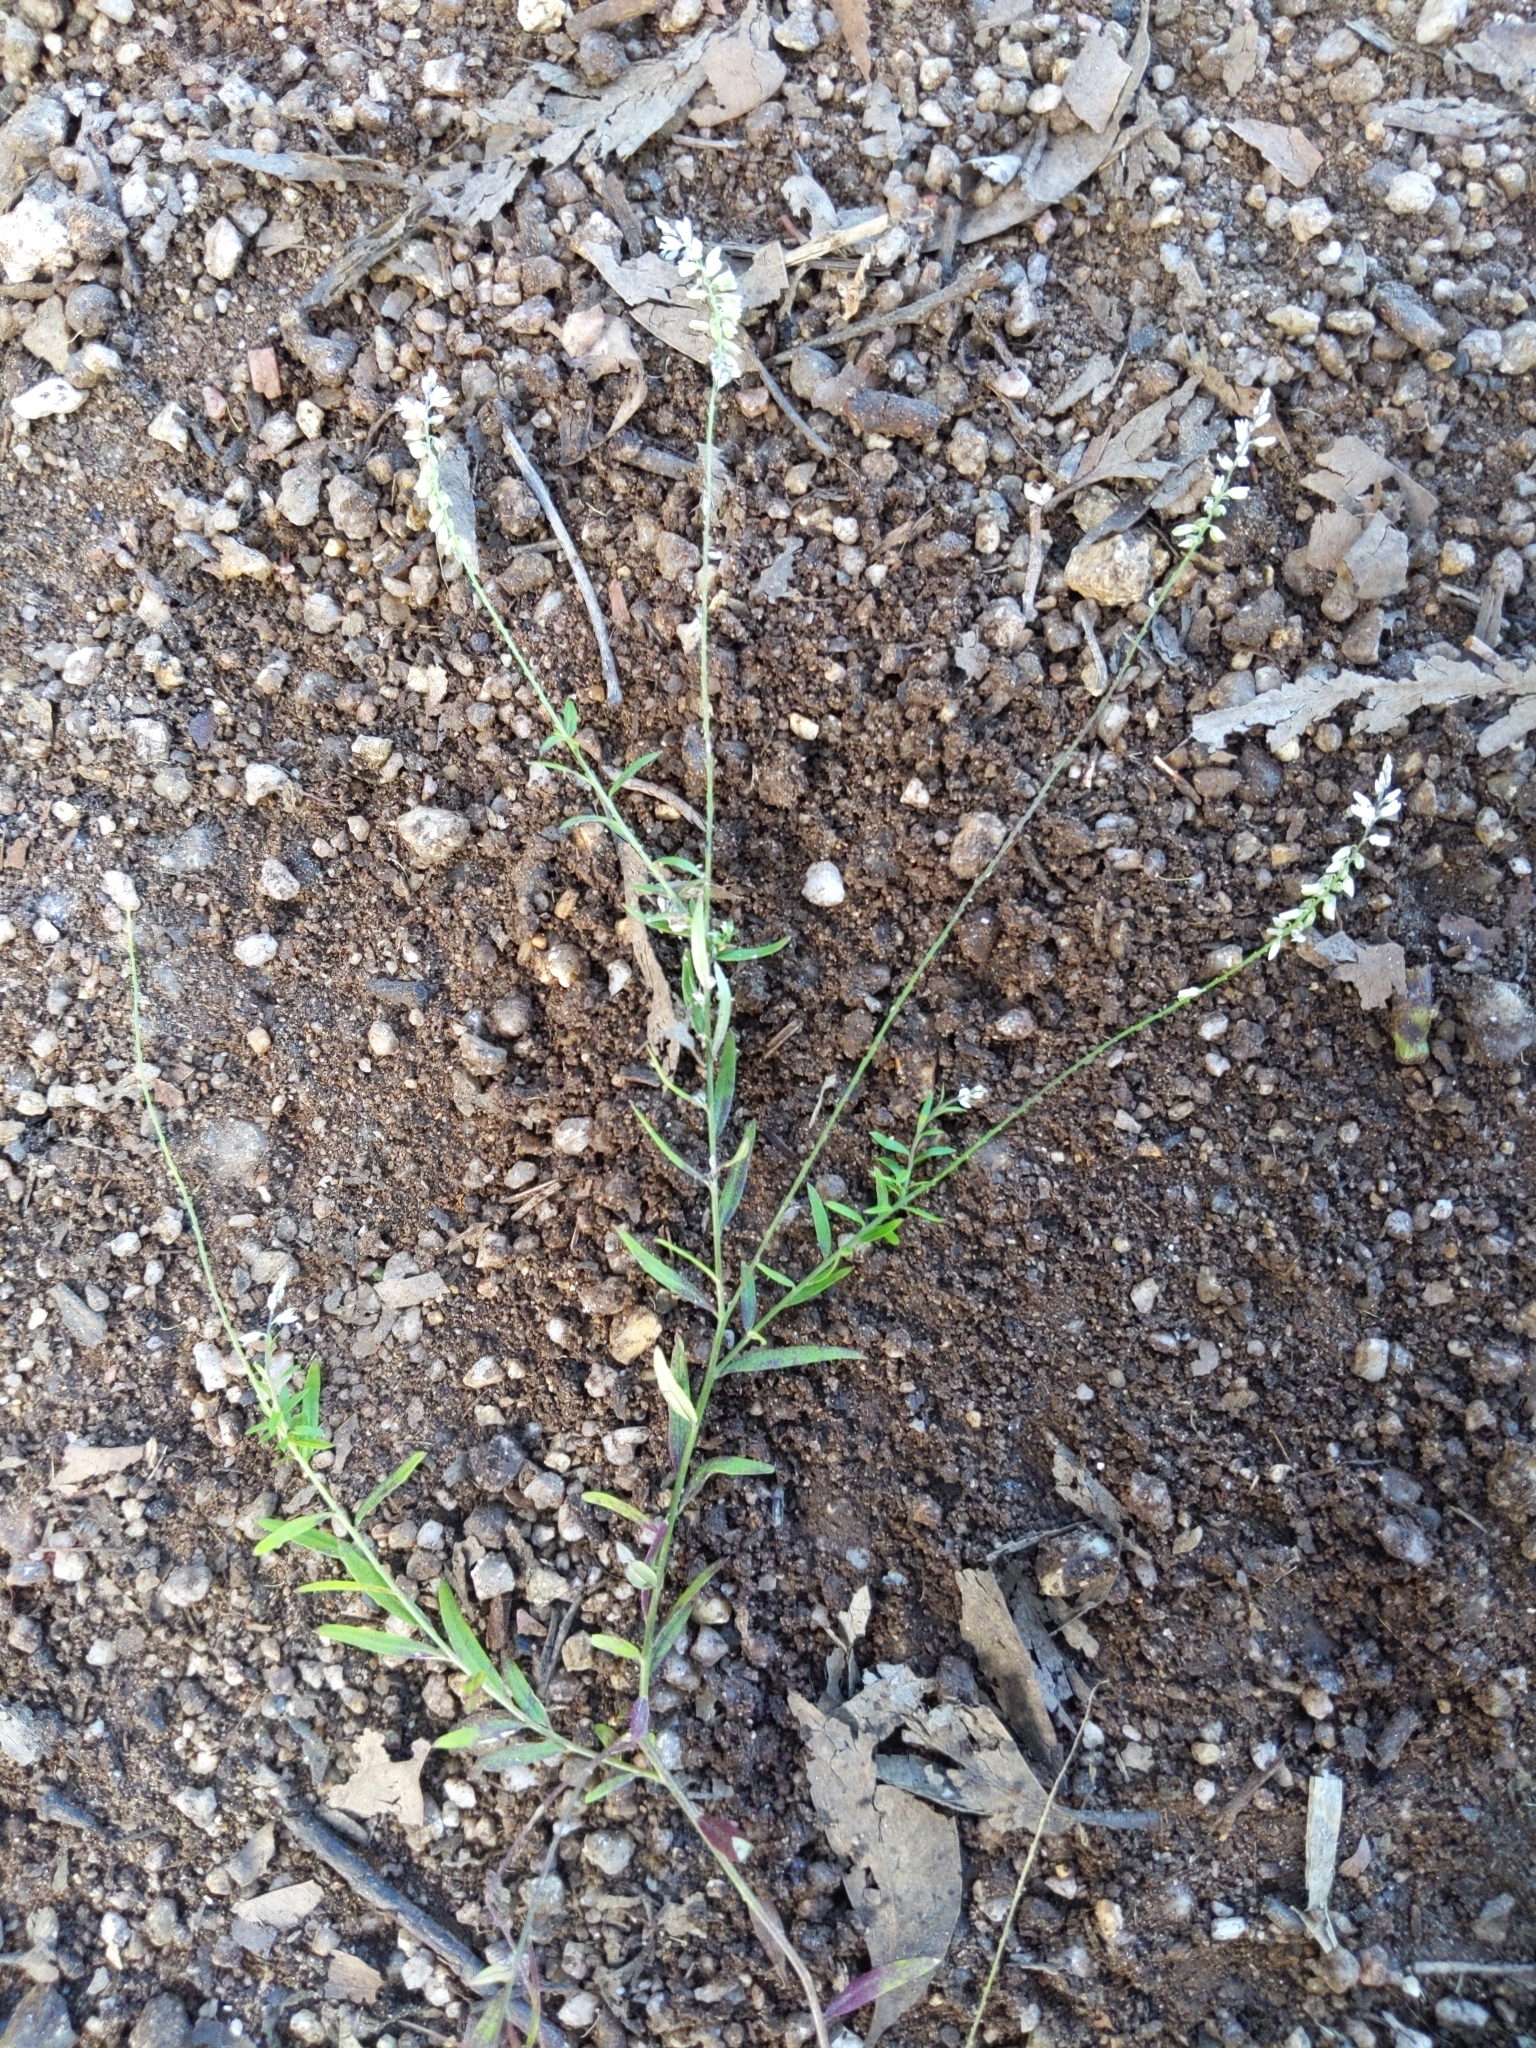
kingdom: Plantae
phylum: Tracheophyta
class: Magnoliopsida
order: Fabales
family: Polygalaceae
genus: Polygala
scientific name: Polygala paniculata
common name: Orosne
